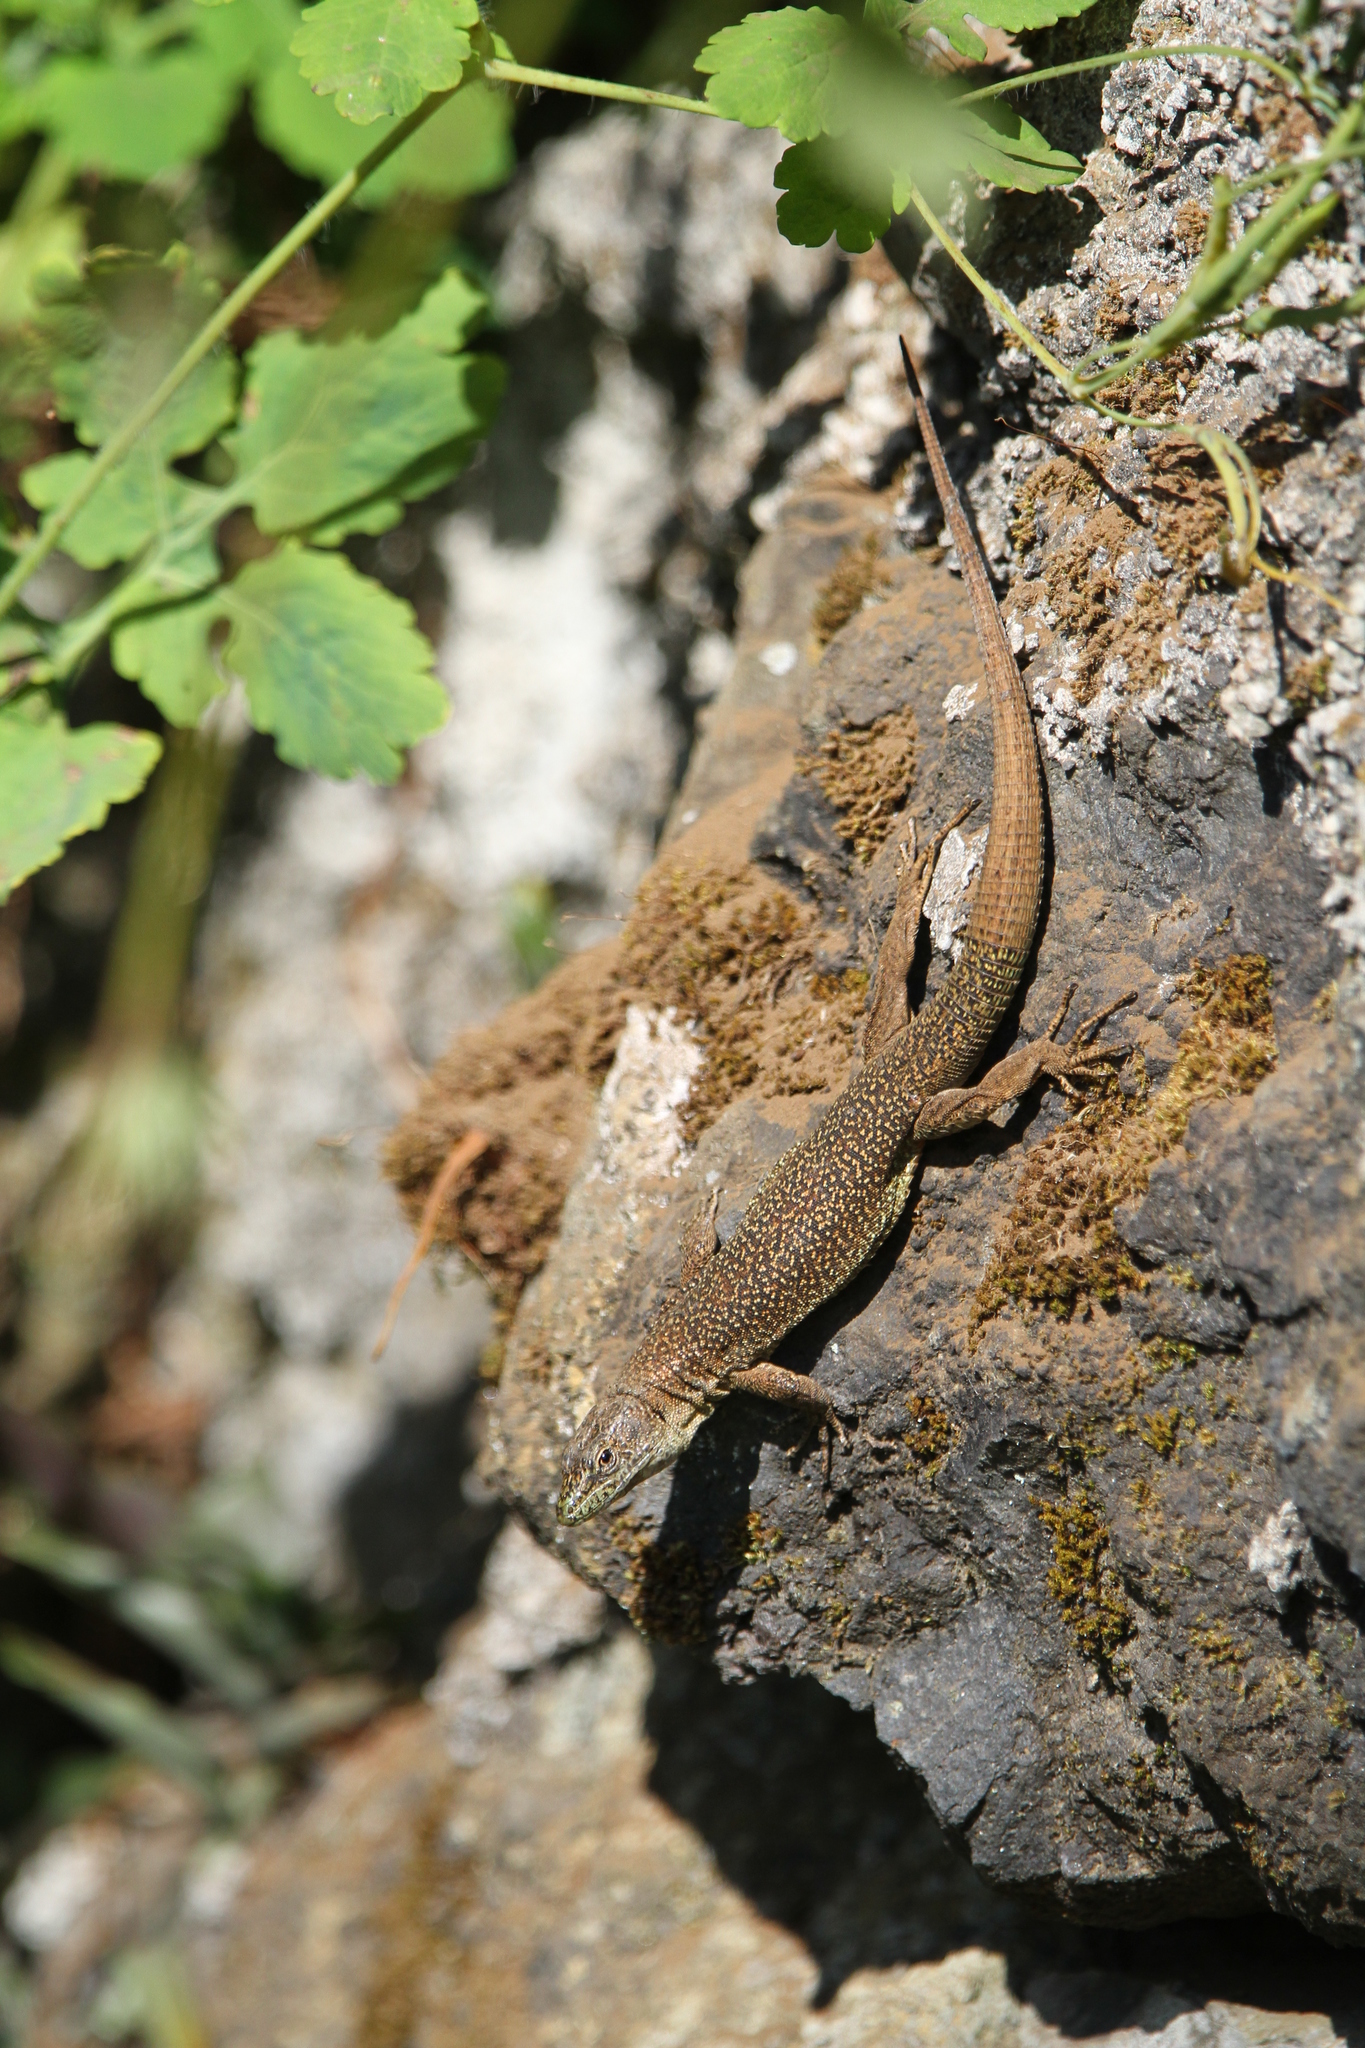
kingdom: Animalia
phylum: Chordata
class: Squamata
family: Lacertidae
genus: Teira
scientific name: Teira dugesii
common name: Madeira lizard
